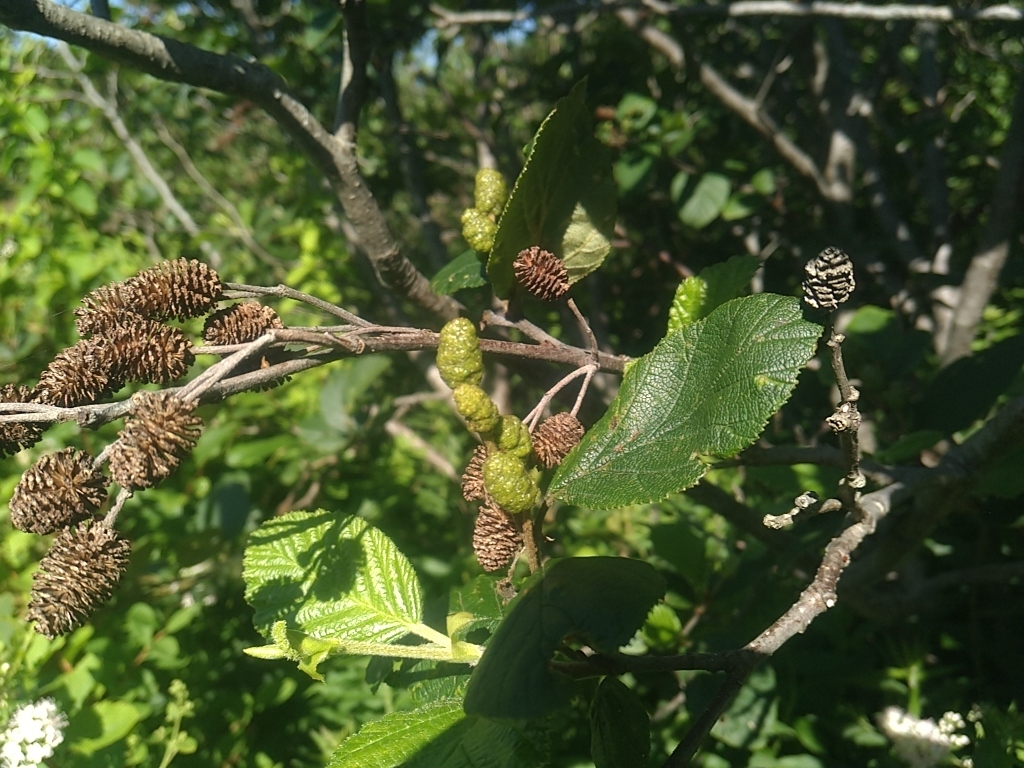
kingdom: Plantae
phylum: Tracheophyta
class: Magnoliopsida
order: Fagales
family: Betulaceae
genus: Alnus
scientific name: Alnus alnobetula
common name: Green alder
